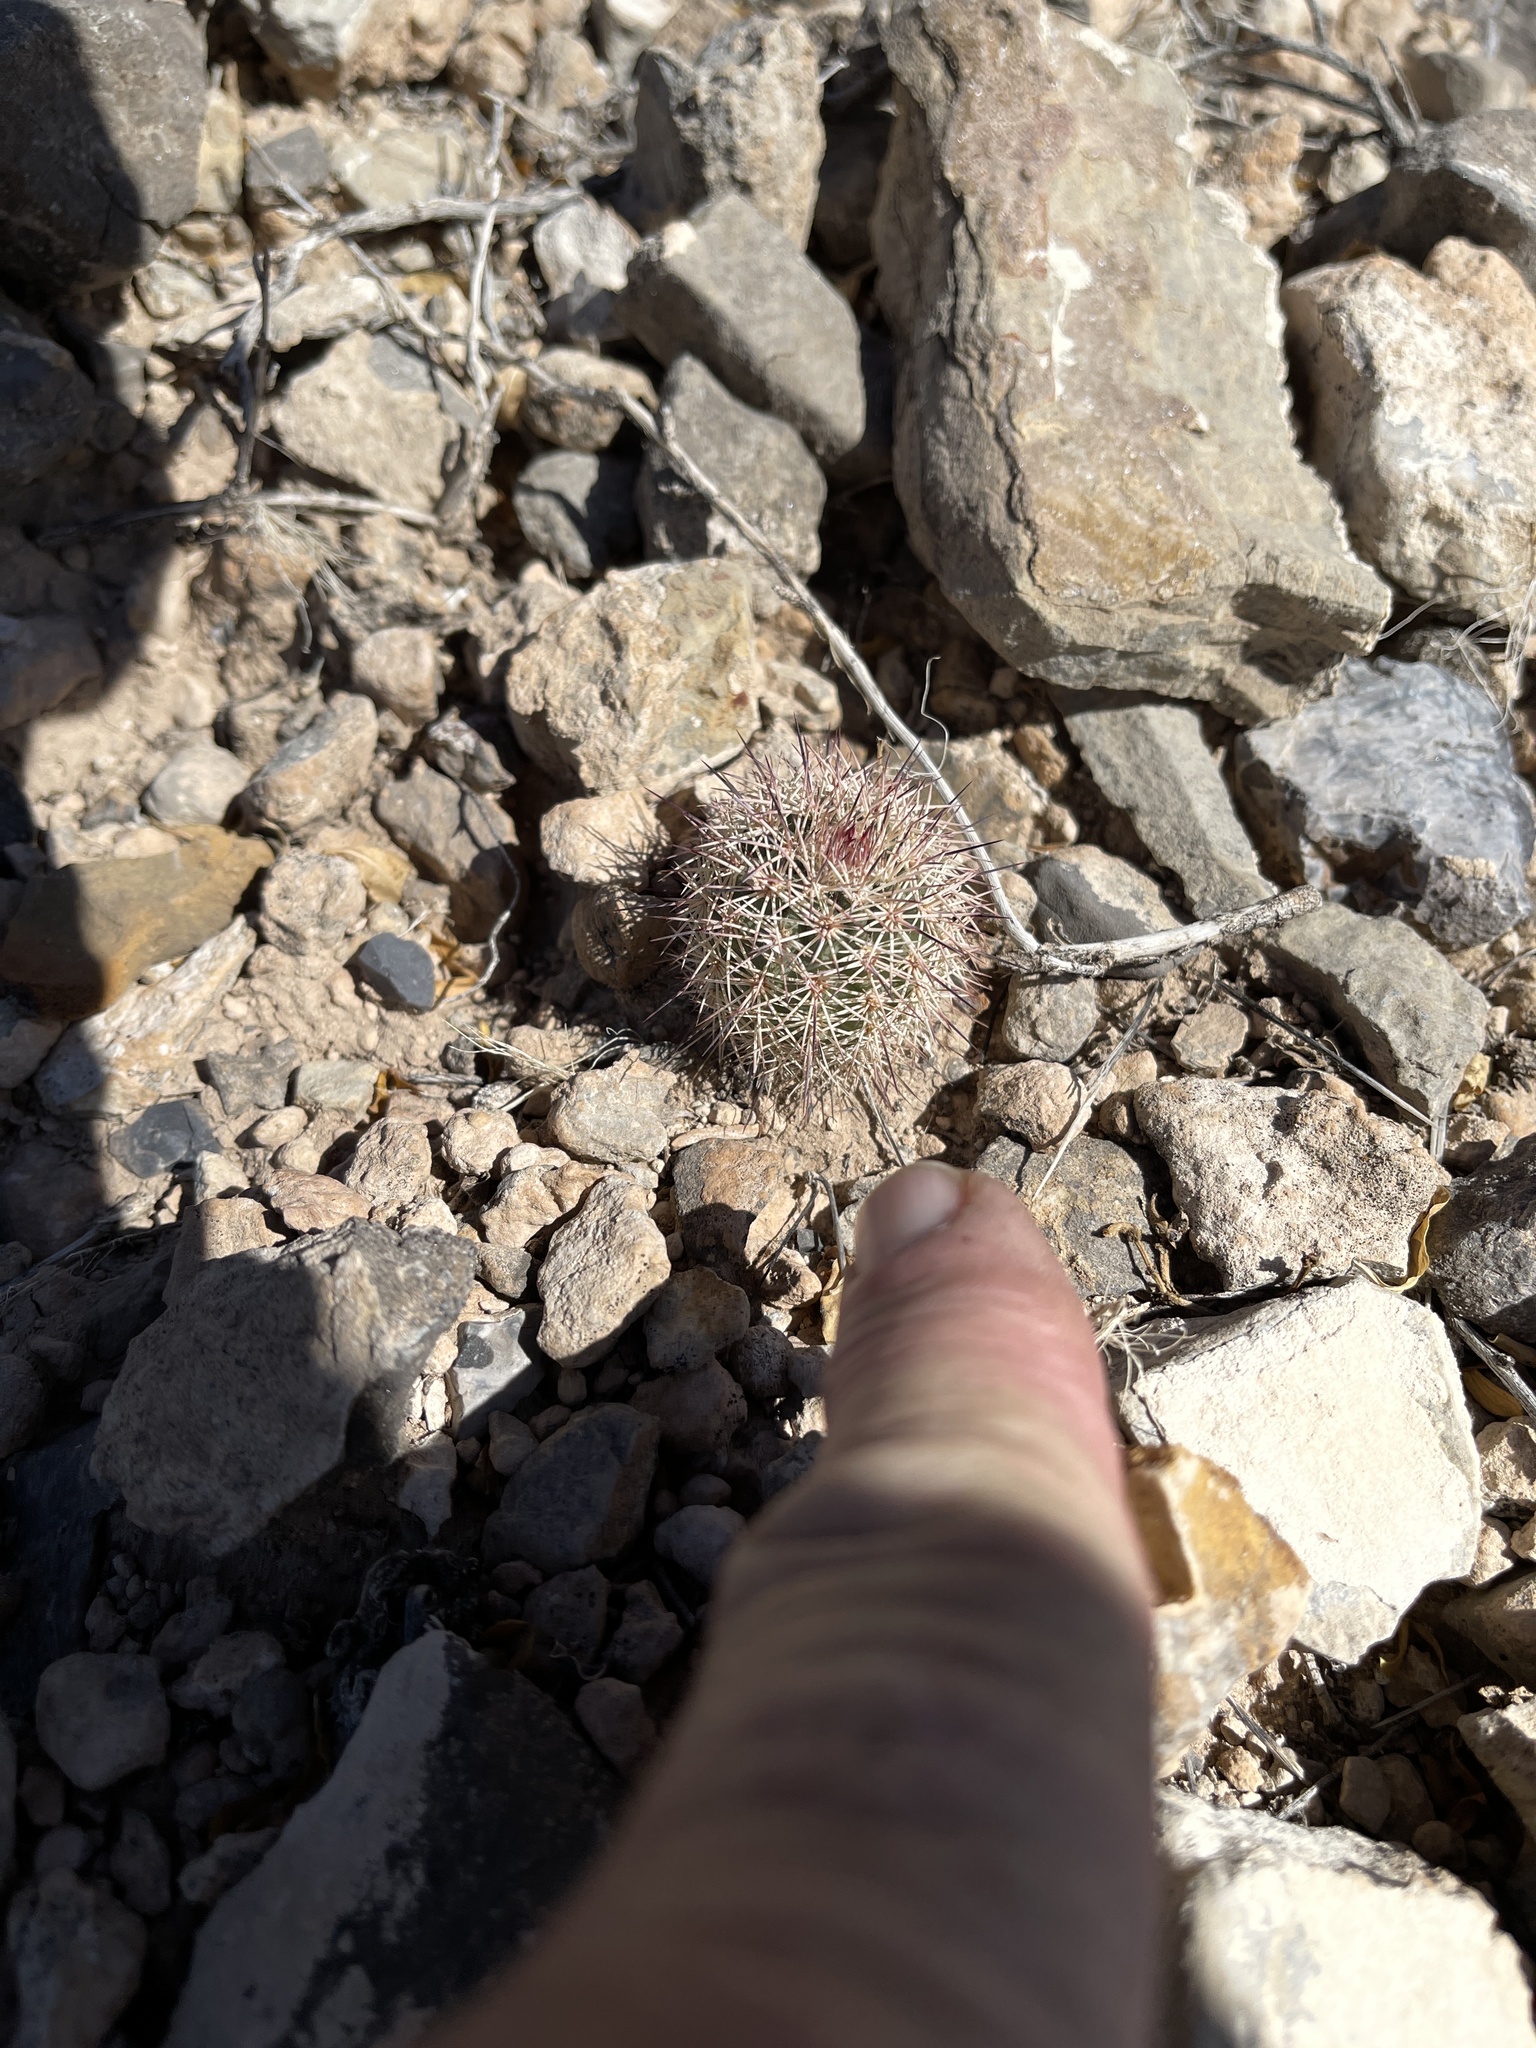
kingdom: Plantae
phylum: Tracheophyta
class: Magnoliopsida
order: Caryophyllales
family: Cactaceae
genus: Echinocereus
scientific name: Echinocereus dasyacanthus
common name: Spiny hedgehog cactus
